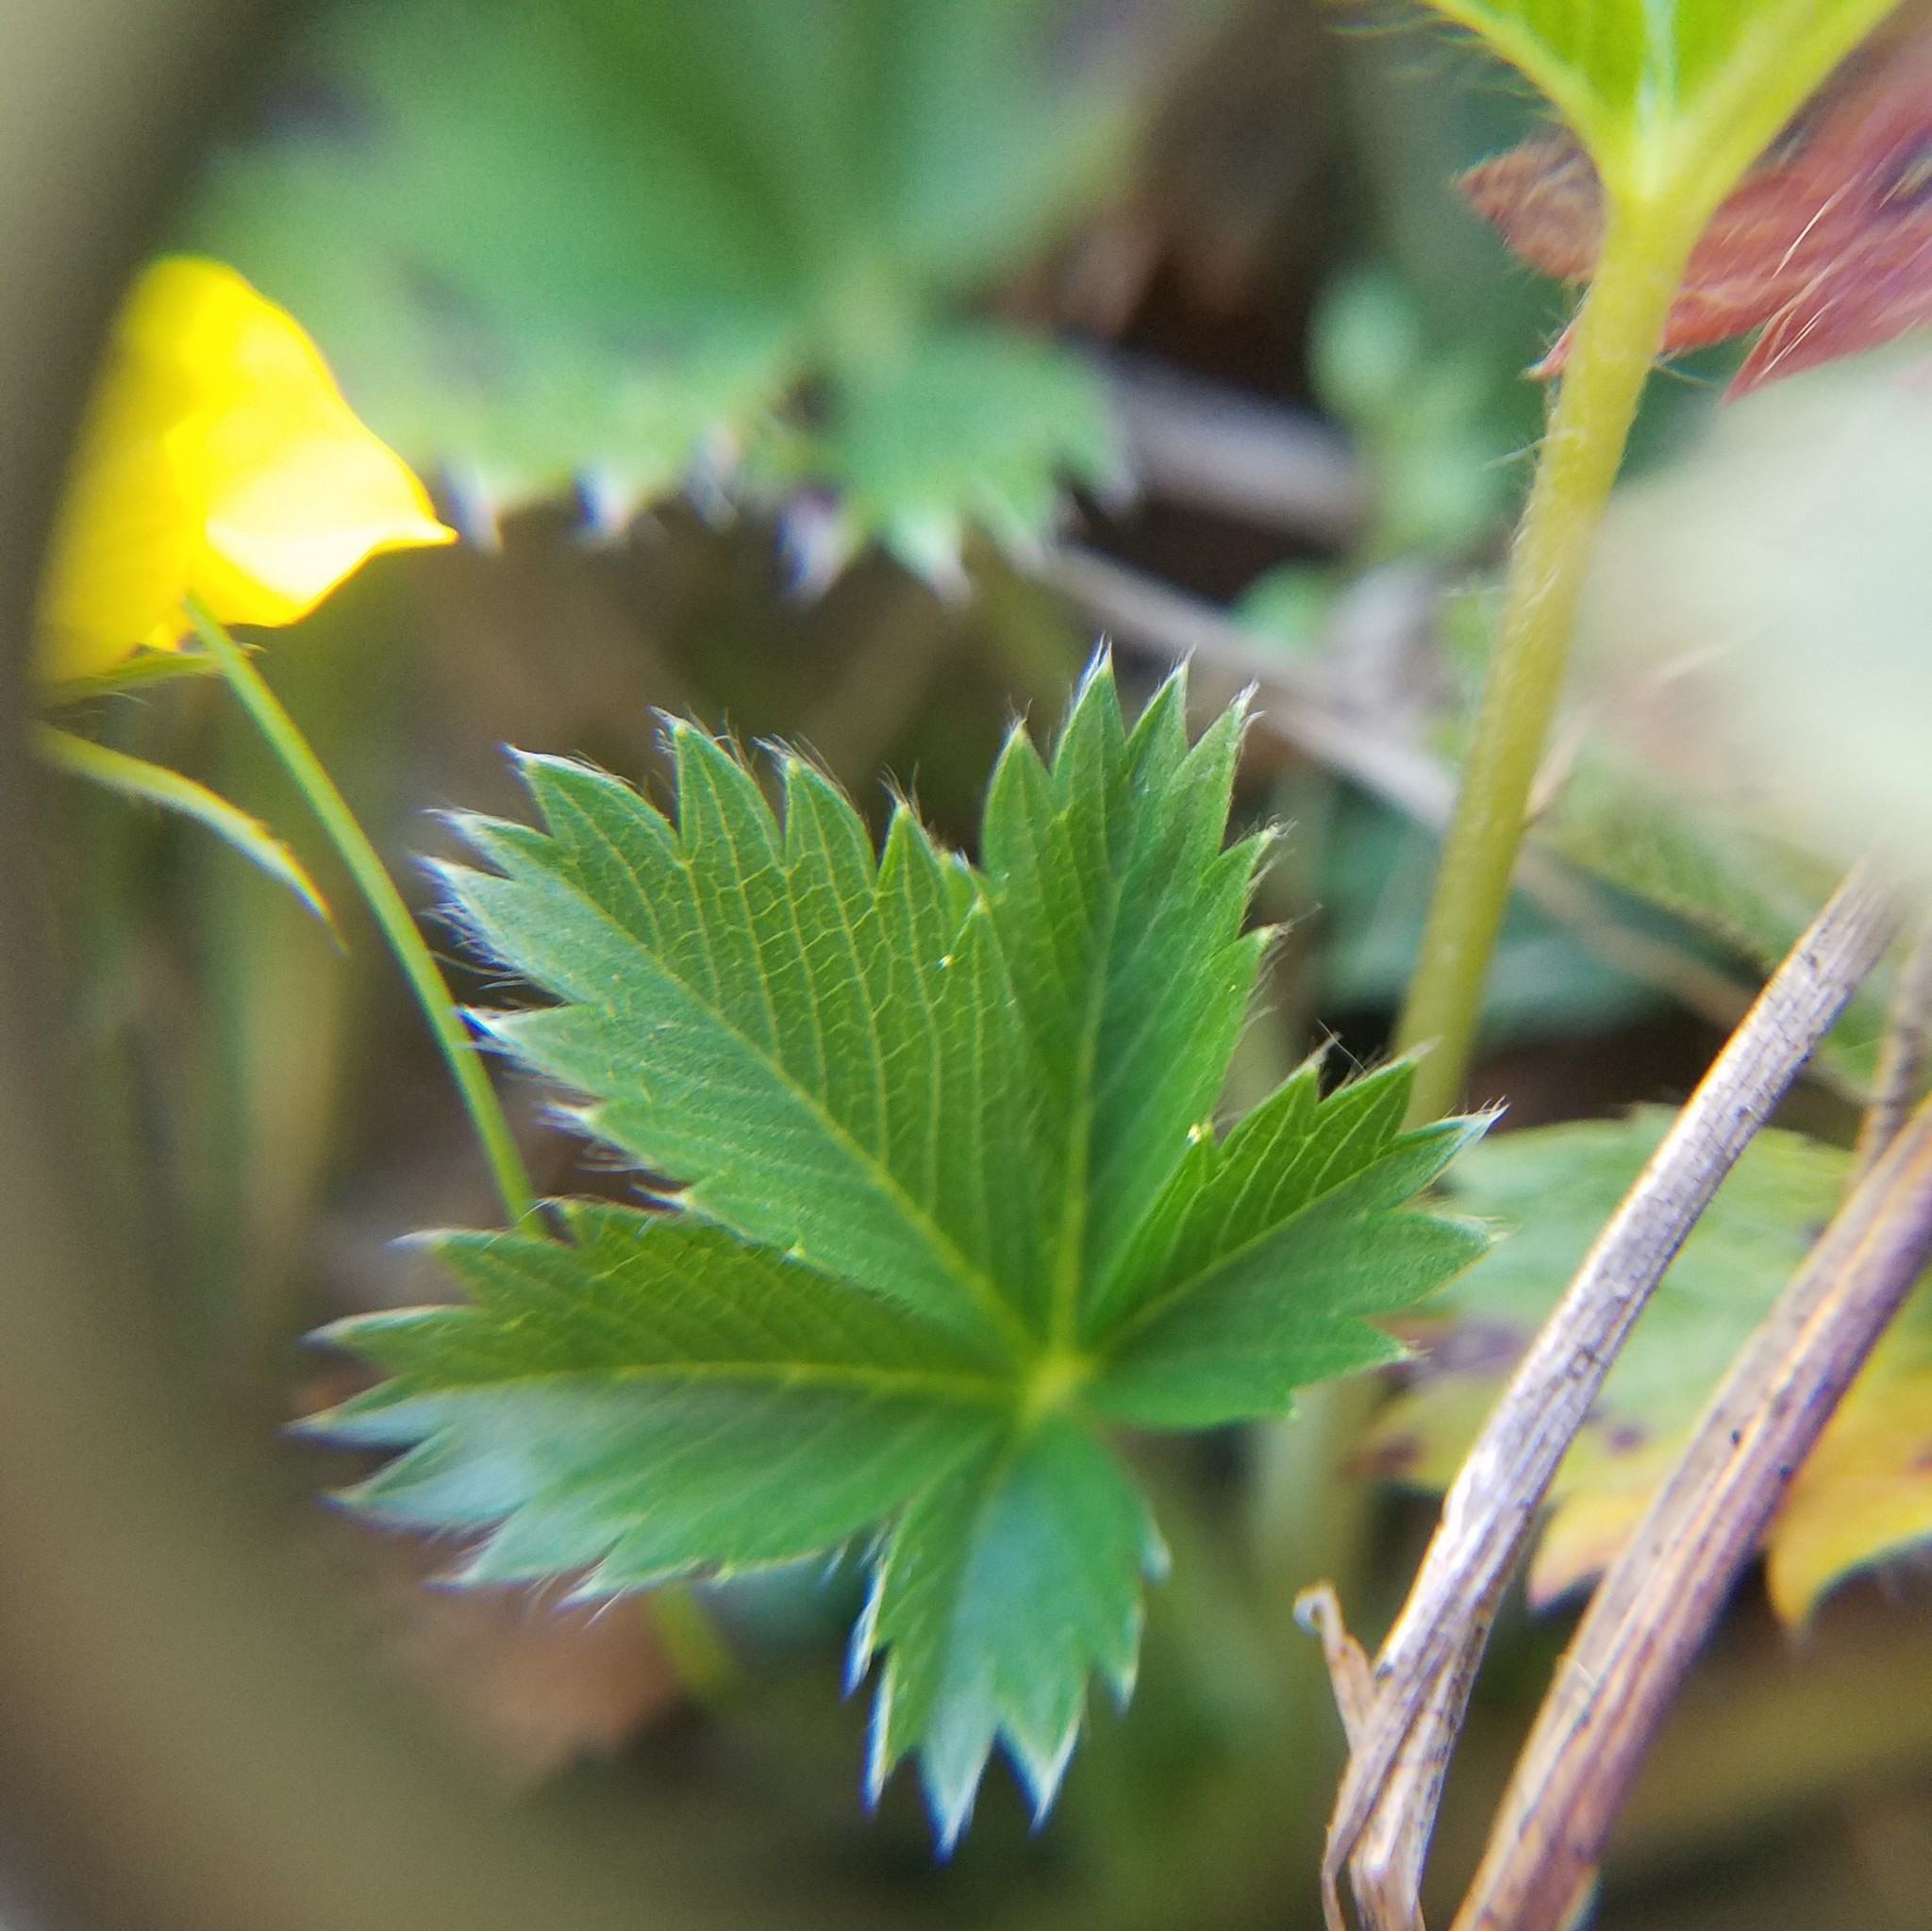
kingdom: Plantae
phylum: Tracheophyta
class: Magnoliopsida
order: Rosales
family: Rosaceae
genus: Potentilla
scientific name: Potentilla canadensis
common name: Canada cinquefoil
